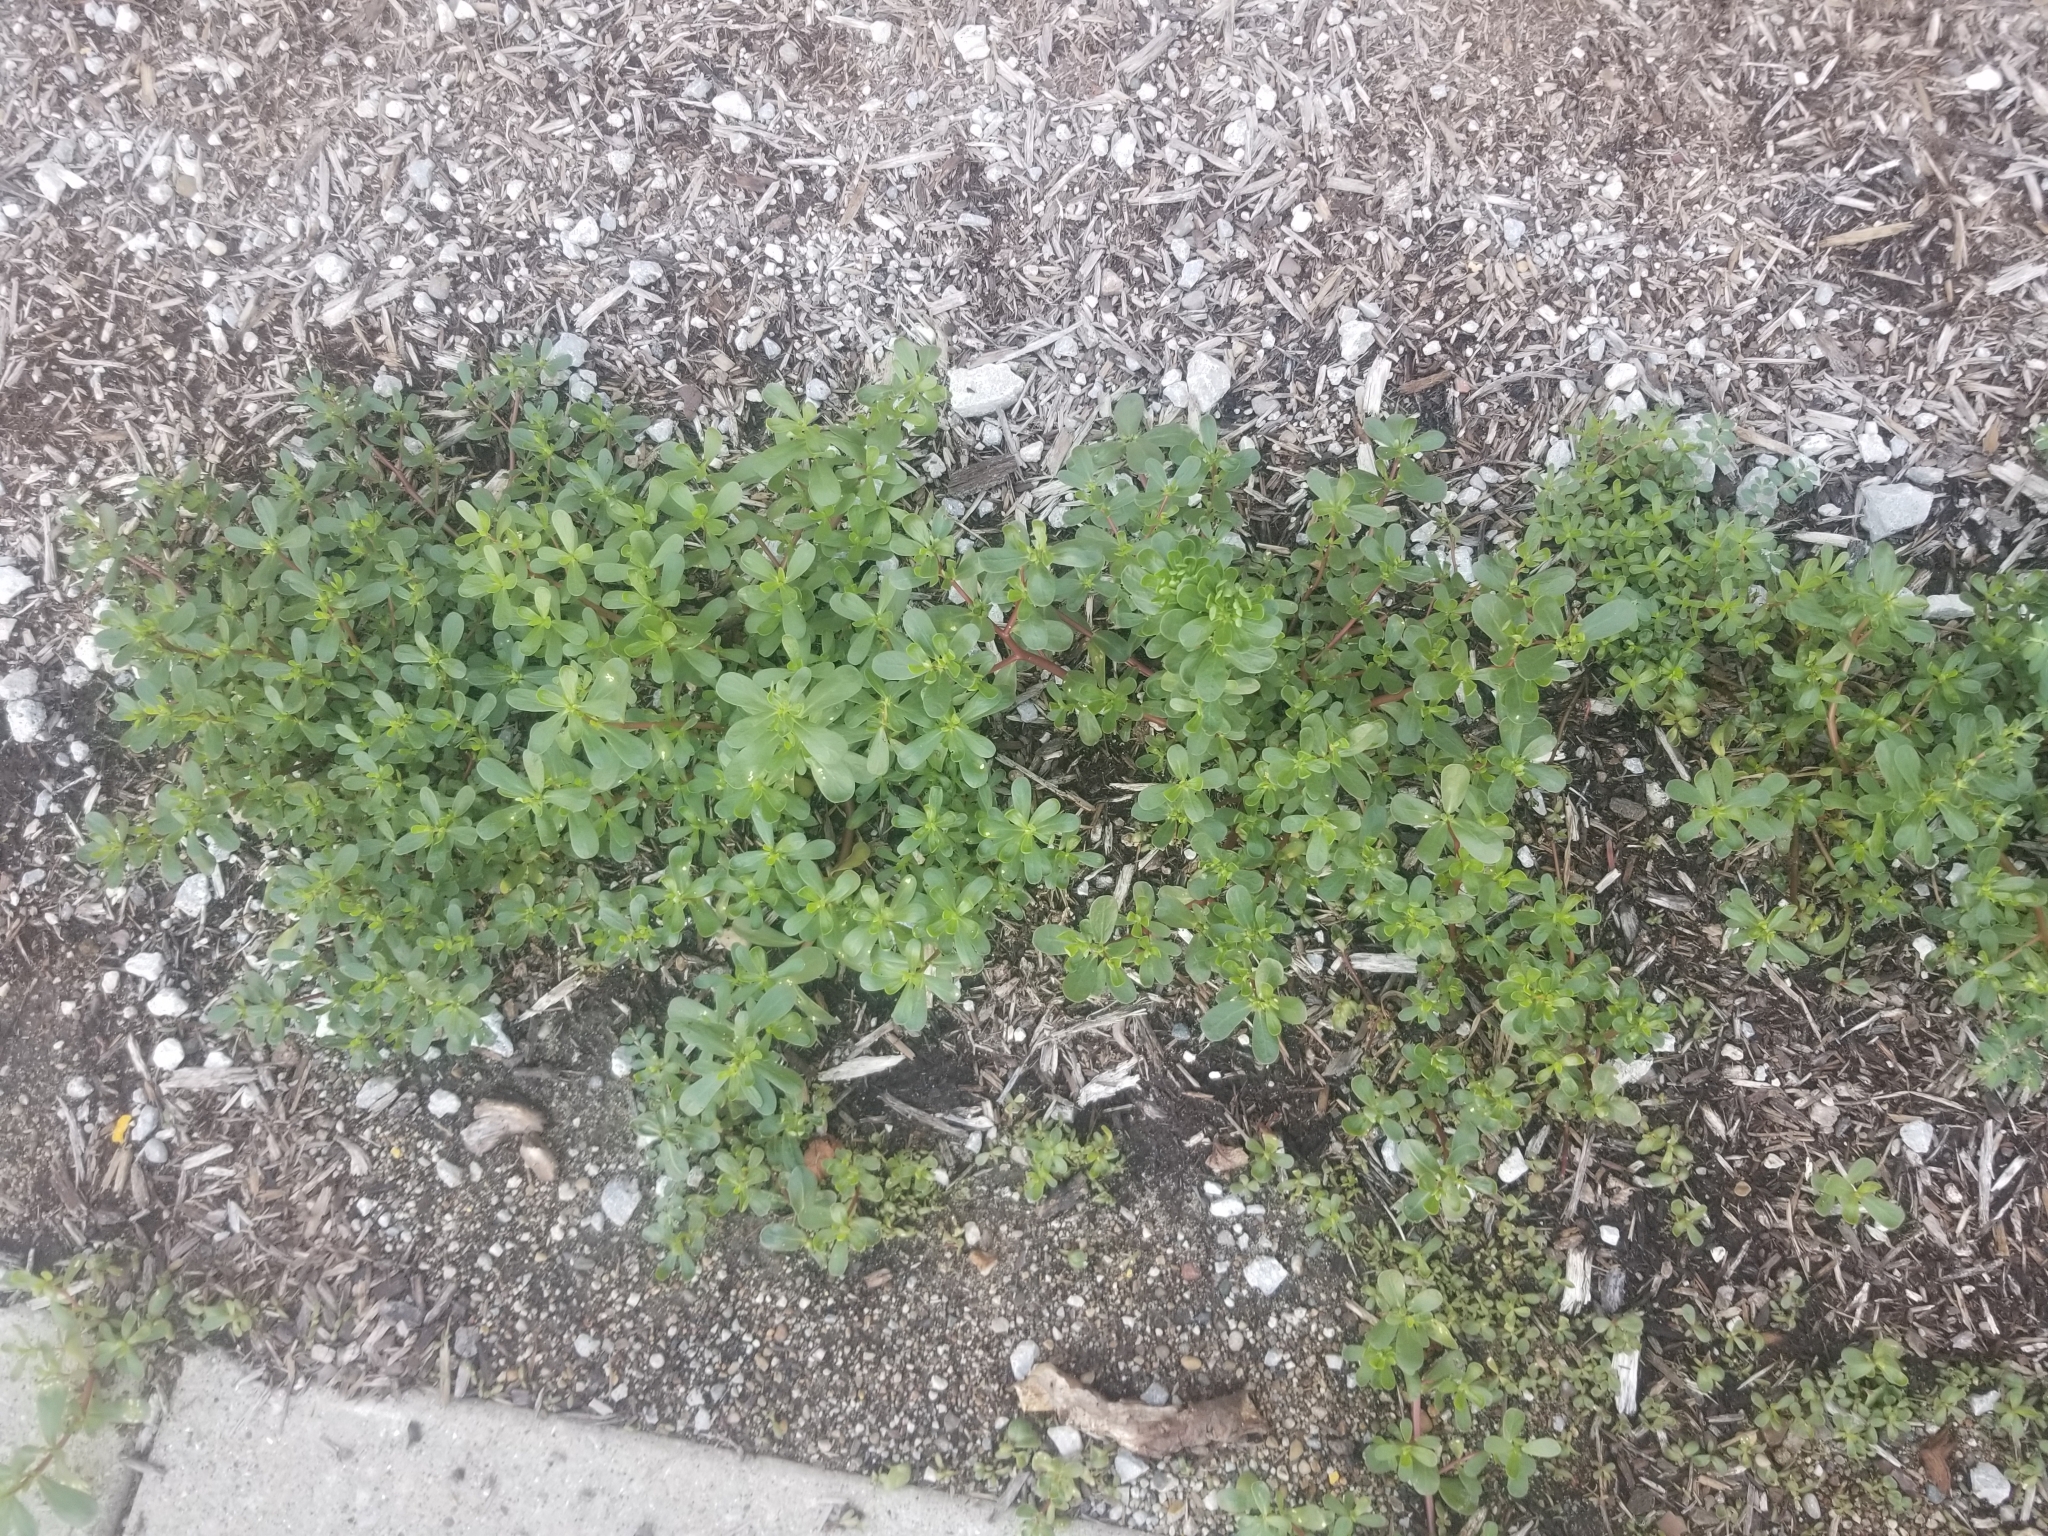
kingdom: Plantae
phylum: Tracheophyta
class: Magnoliopsida
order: Caryophyllales
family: Portulacaceae
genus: Portulaca
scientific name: Portulaca oleracea
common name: Common purslane
